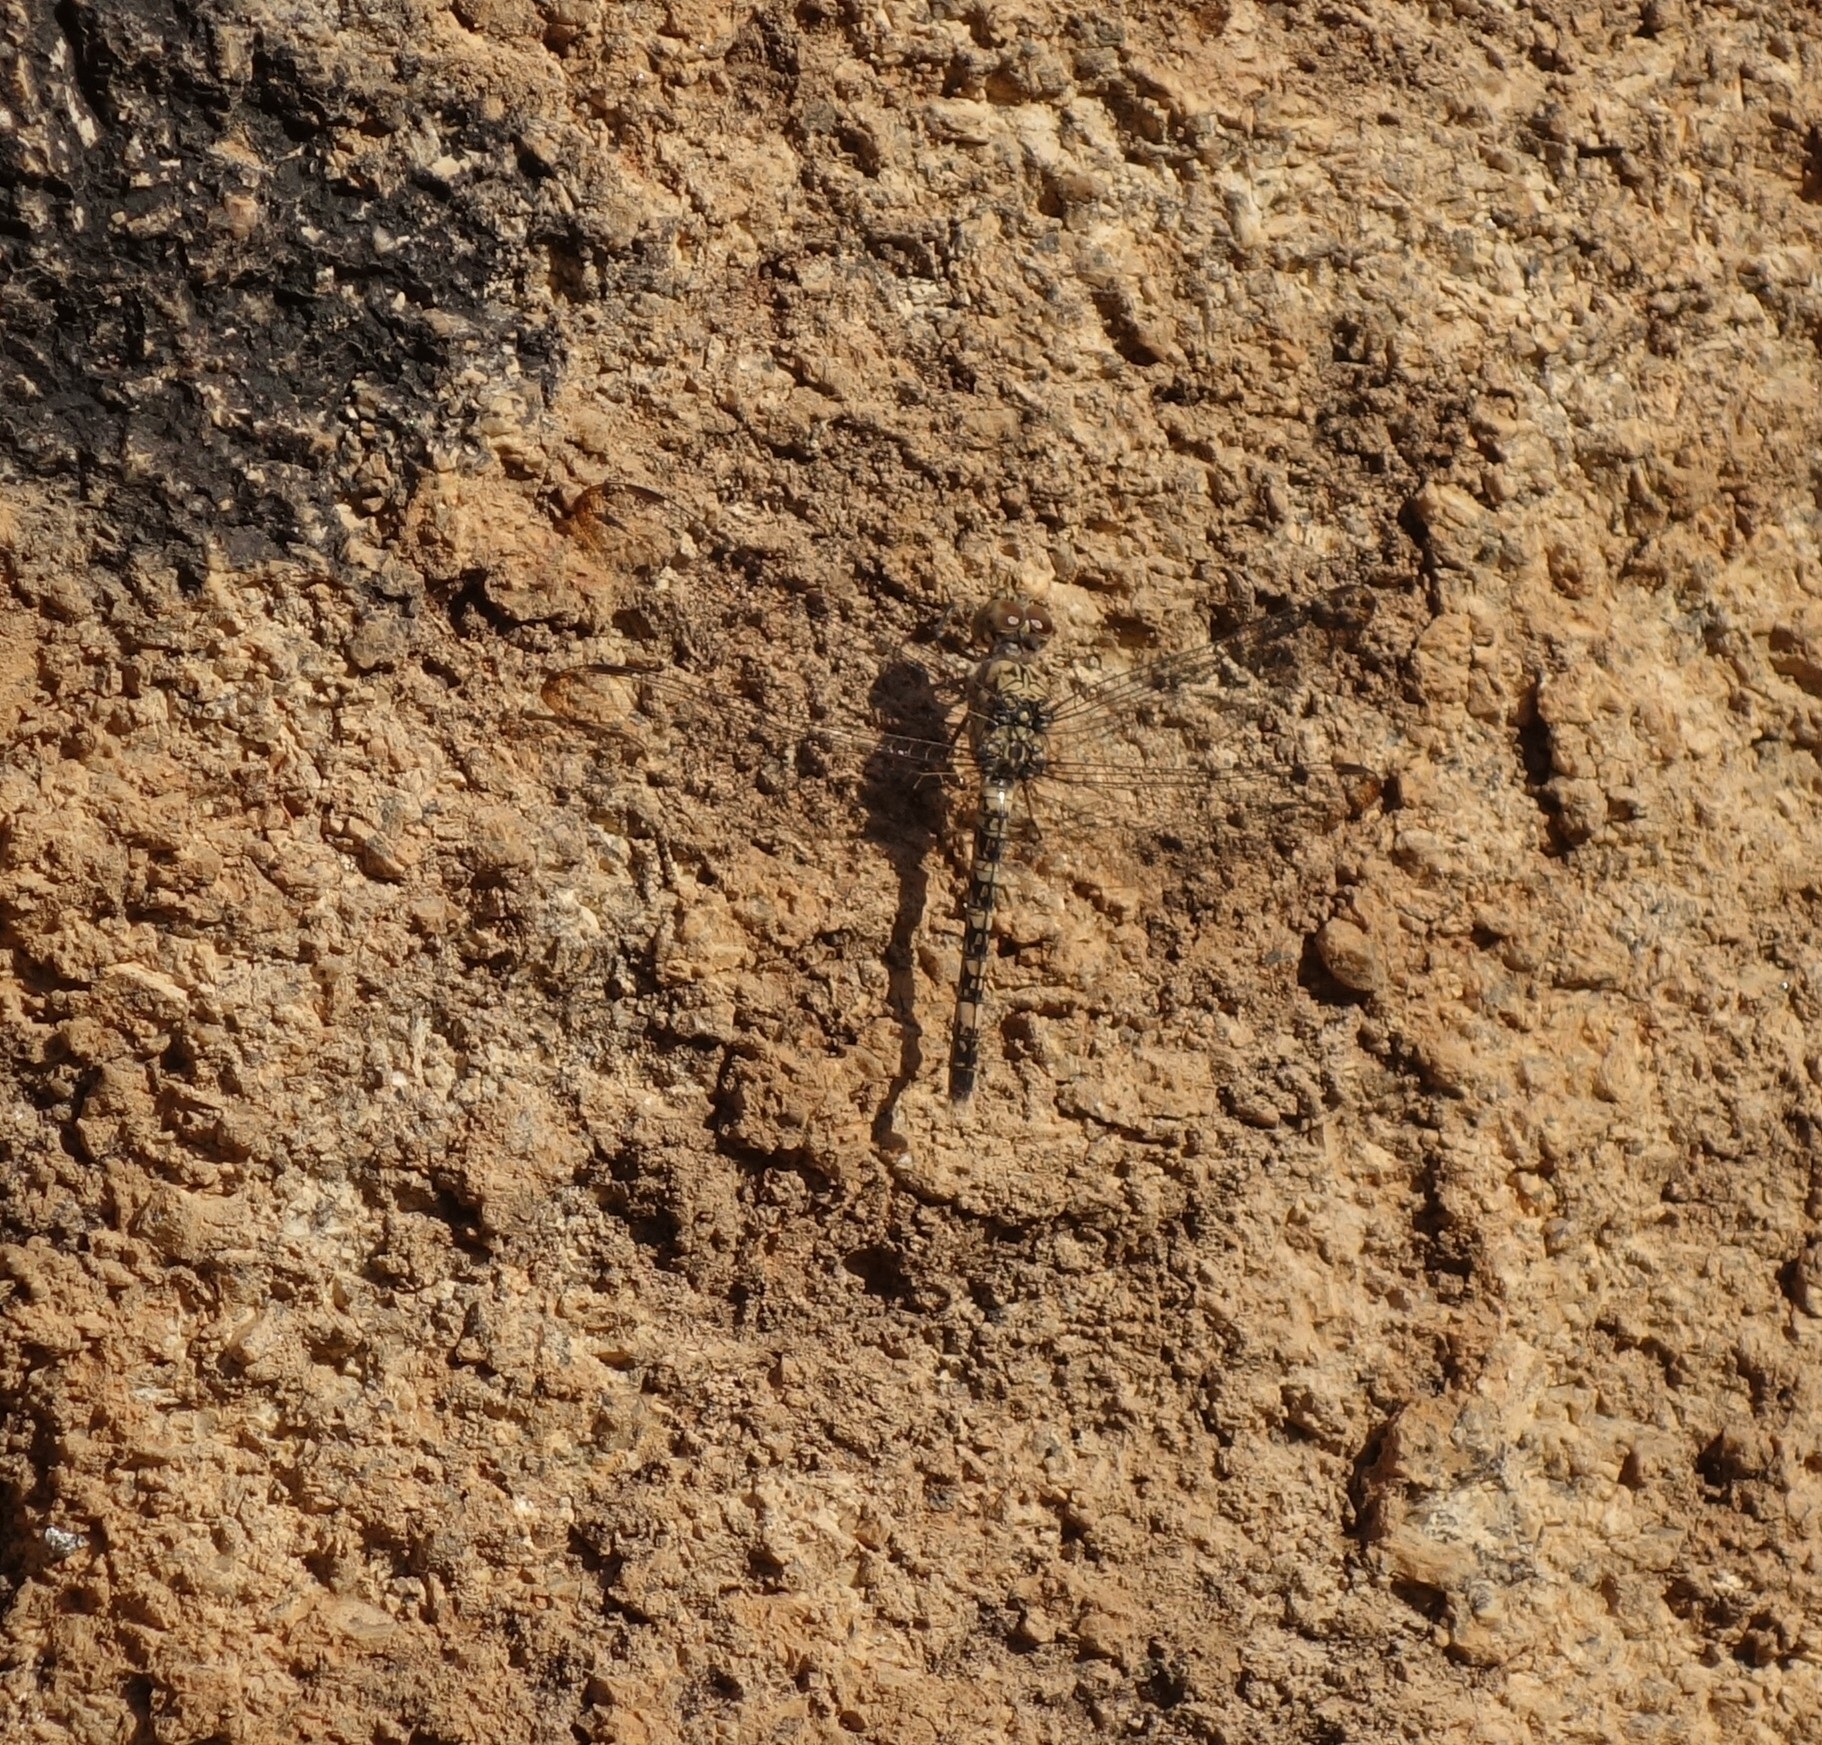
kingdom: Animalia
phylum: Arthropoda
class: Insecta
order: Odonata
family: Libellulidae
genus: Bradinopyga
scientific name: Bradinopyga cornuta
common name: Flecked wall-skimmer
